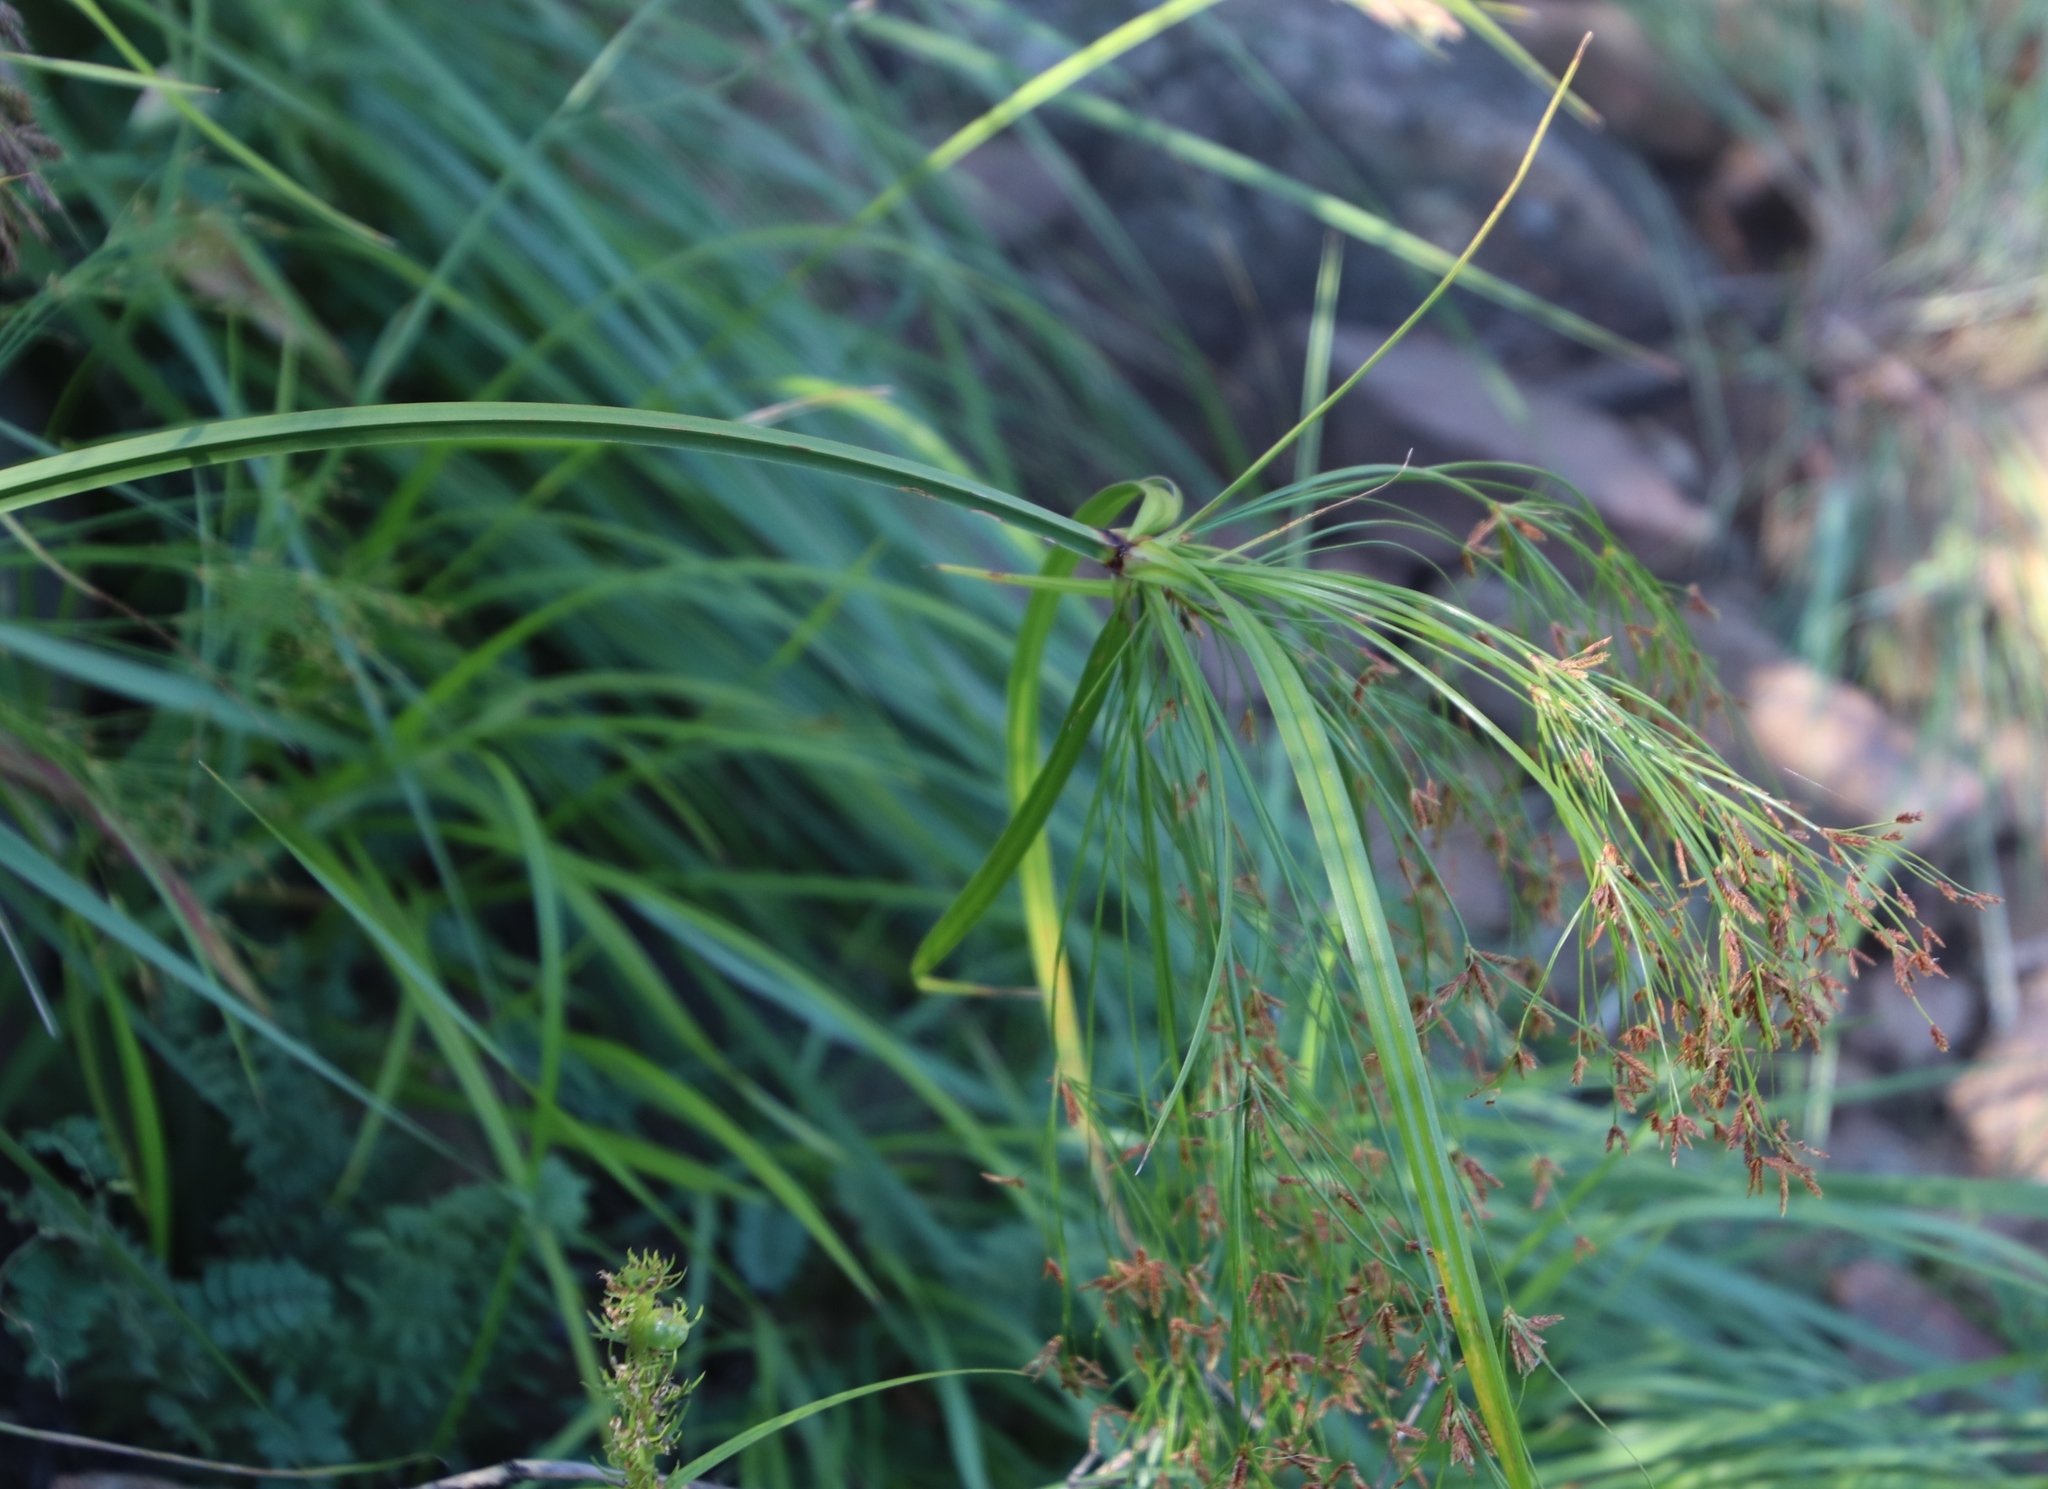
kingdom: Plantae
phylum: Tracheophyta
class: Liliopsida
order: Poales
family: Cyperaceae
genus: Cyperus
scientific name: Cyperus leptocladus
